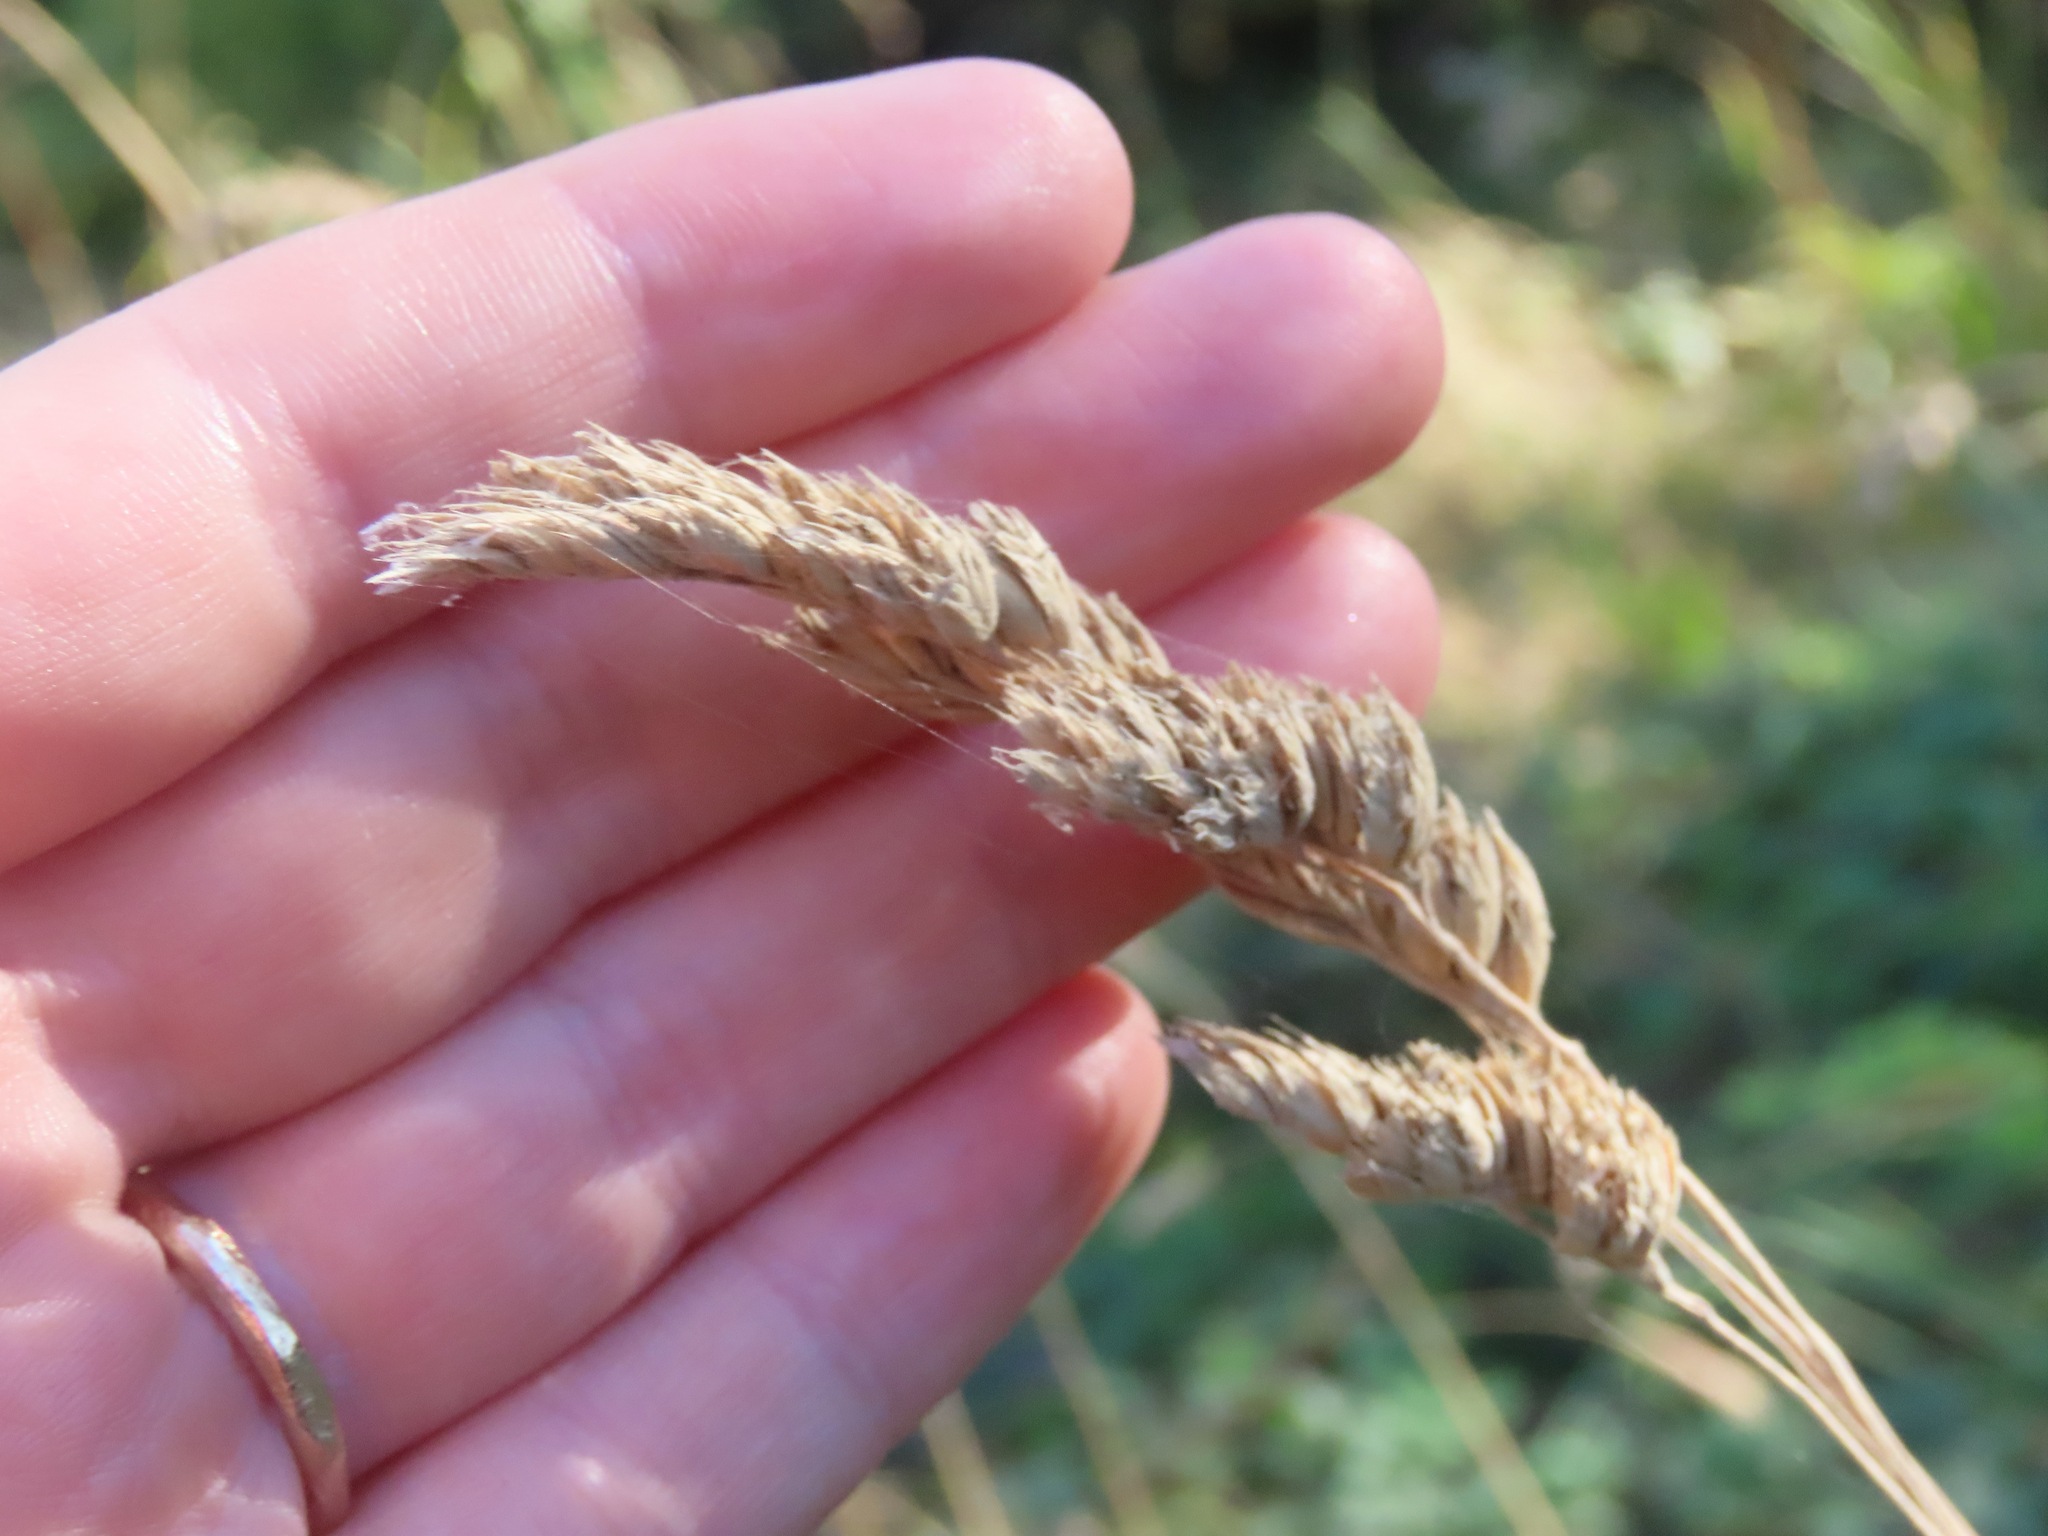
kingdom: Plantae
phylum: Tracheophyta
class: Liliopsida
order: Poales
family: Poaceae
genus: Dactylis
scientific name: Dactylis glomerata
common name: Orchardgrass
